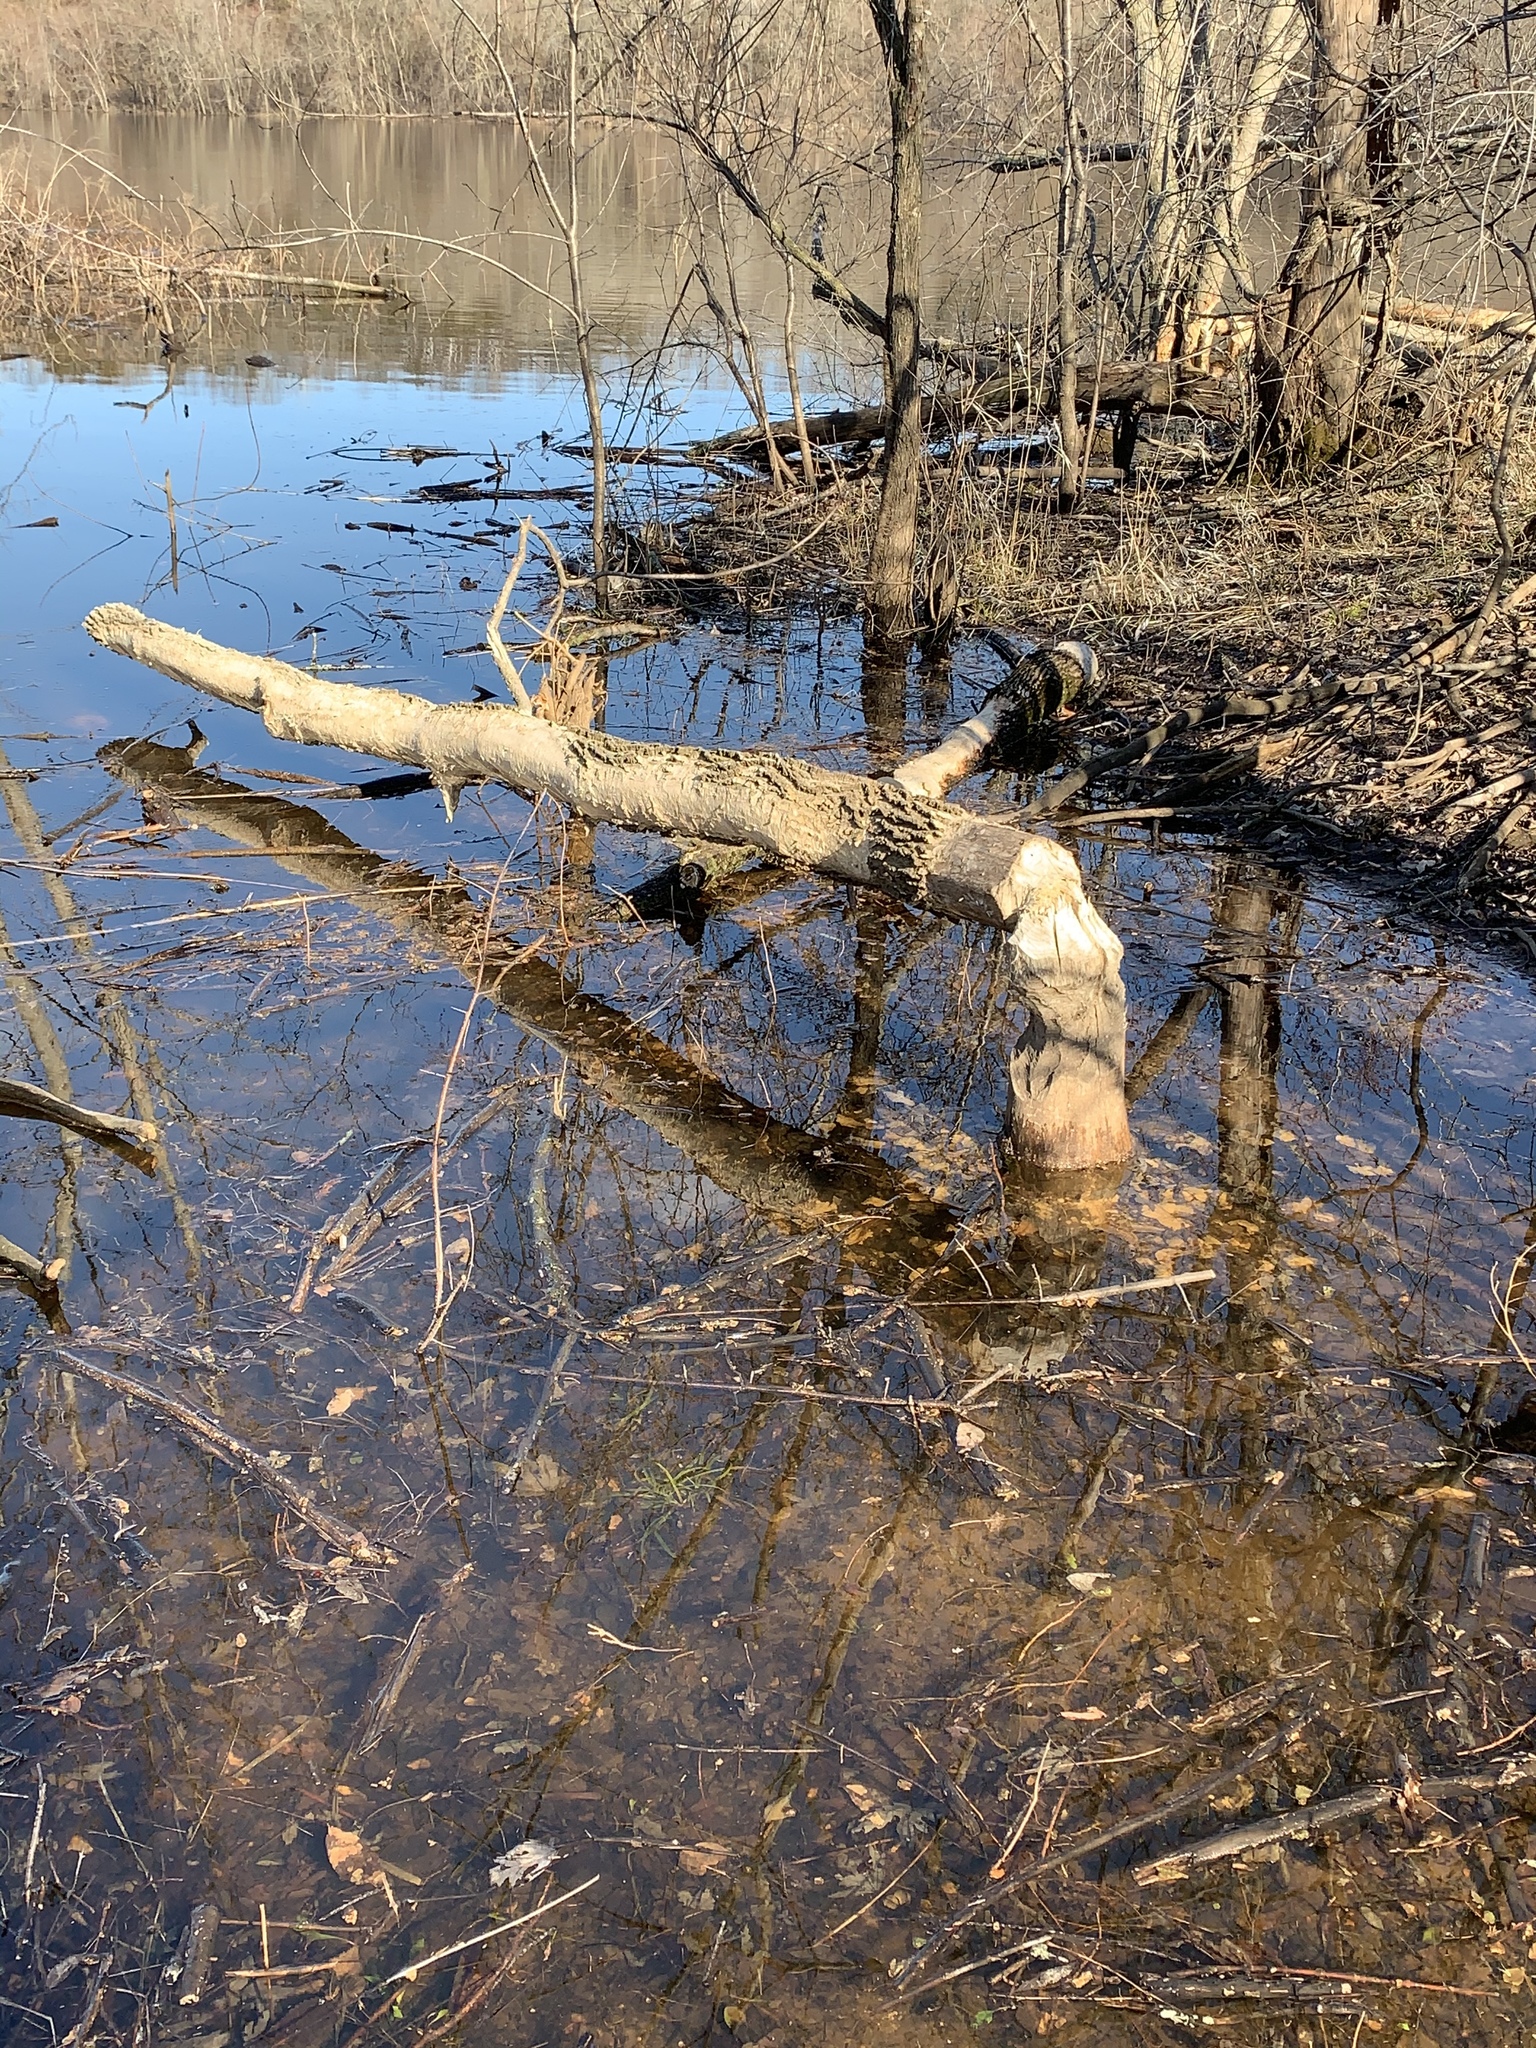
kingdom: Animalia
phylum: Chordata
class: Mammalia
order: Rodentia
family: Castoridae
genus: Castor
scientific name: Castor canadensis
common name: American beaver
